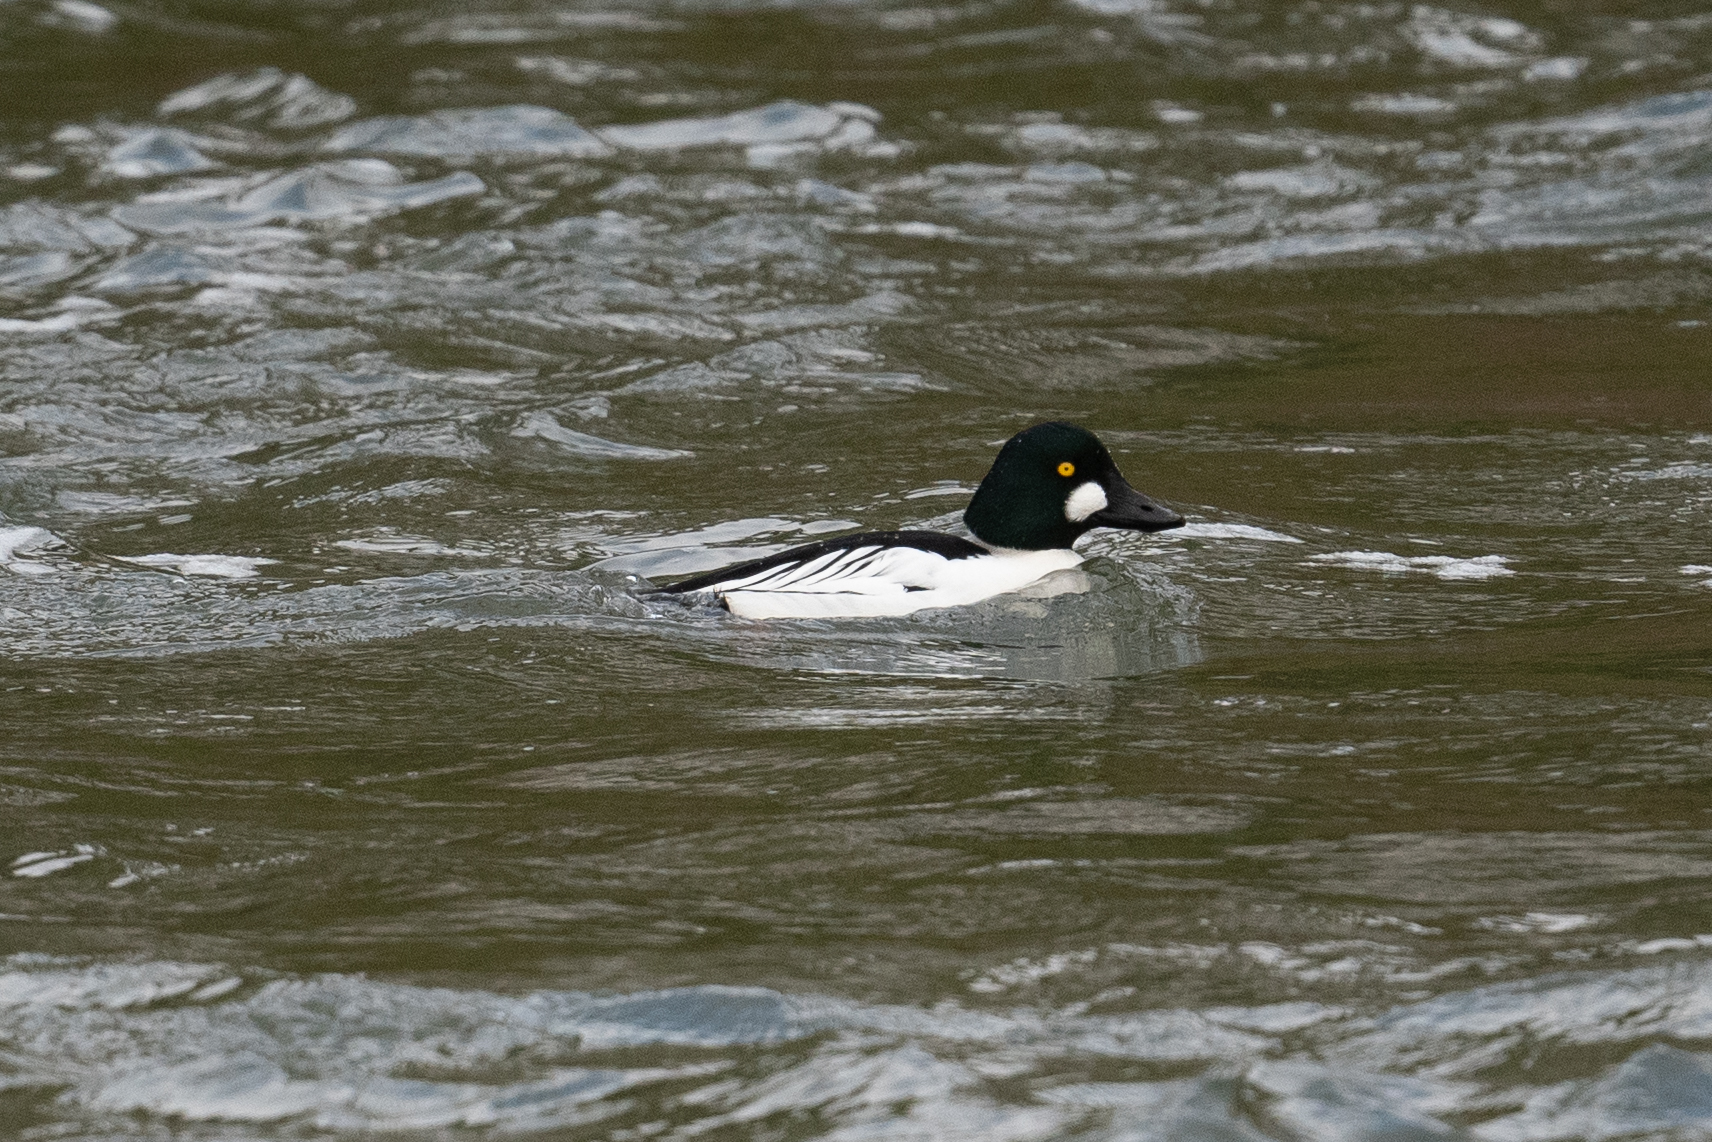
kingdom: Animalia
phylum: Chordata
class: Aves
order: Anseriformes
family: Anatidae
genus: Bucephala
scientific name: Bucephala clangula
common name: Common goldeneye
